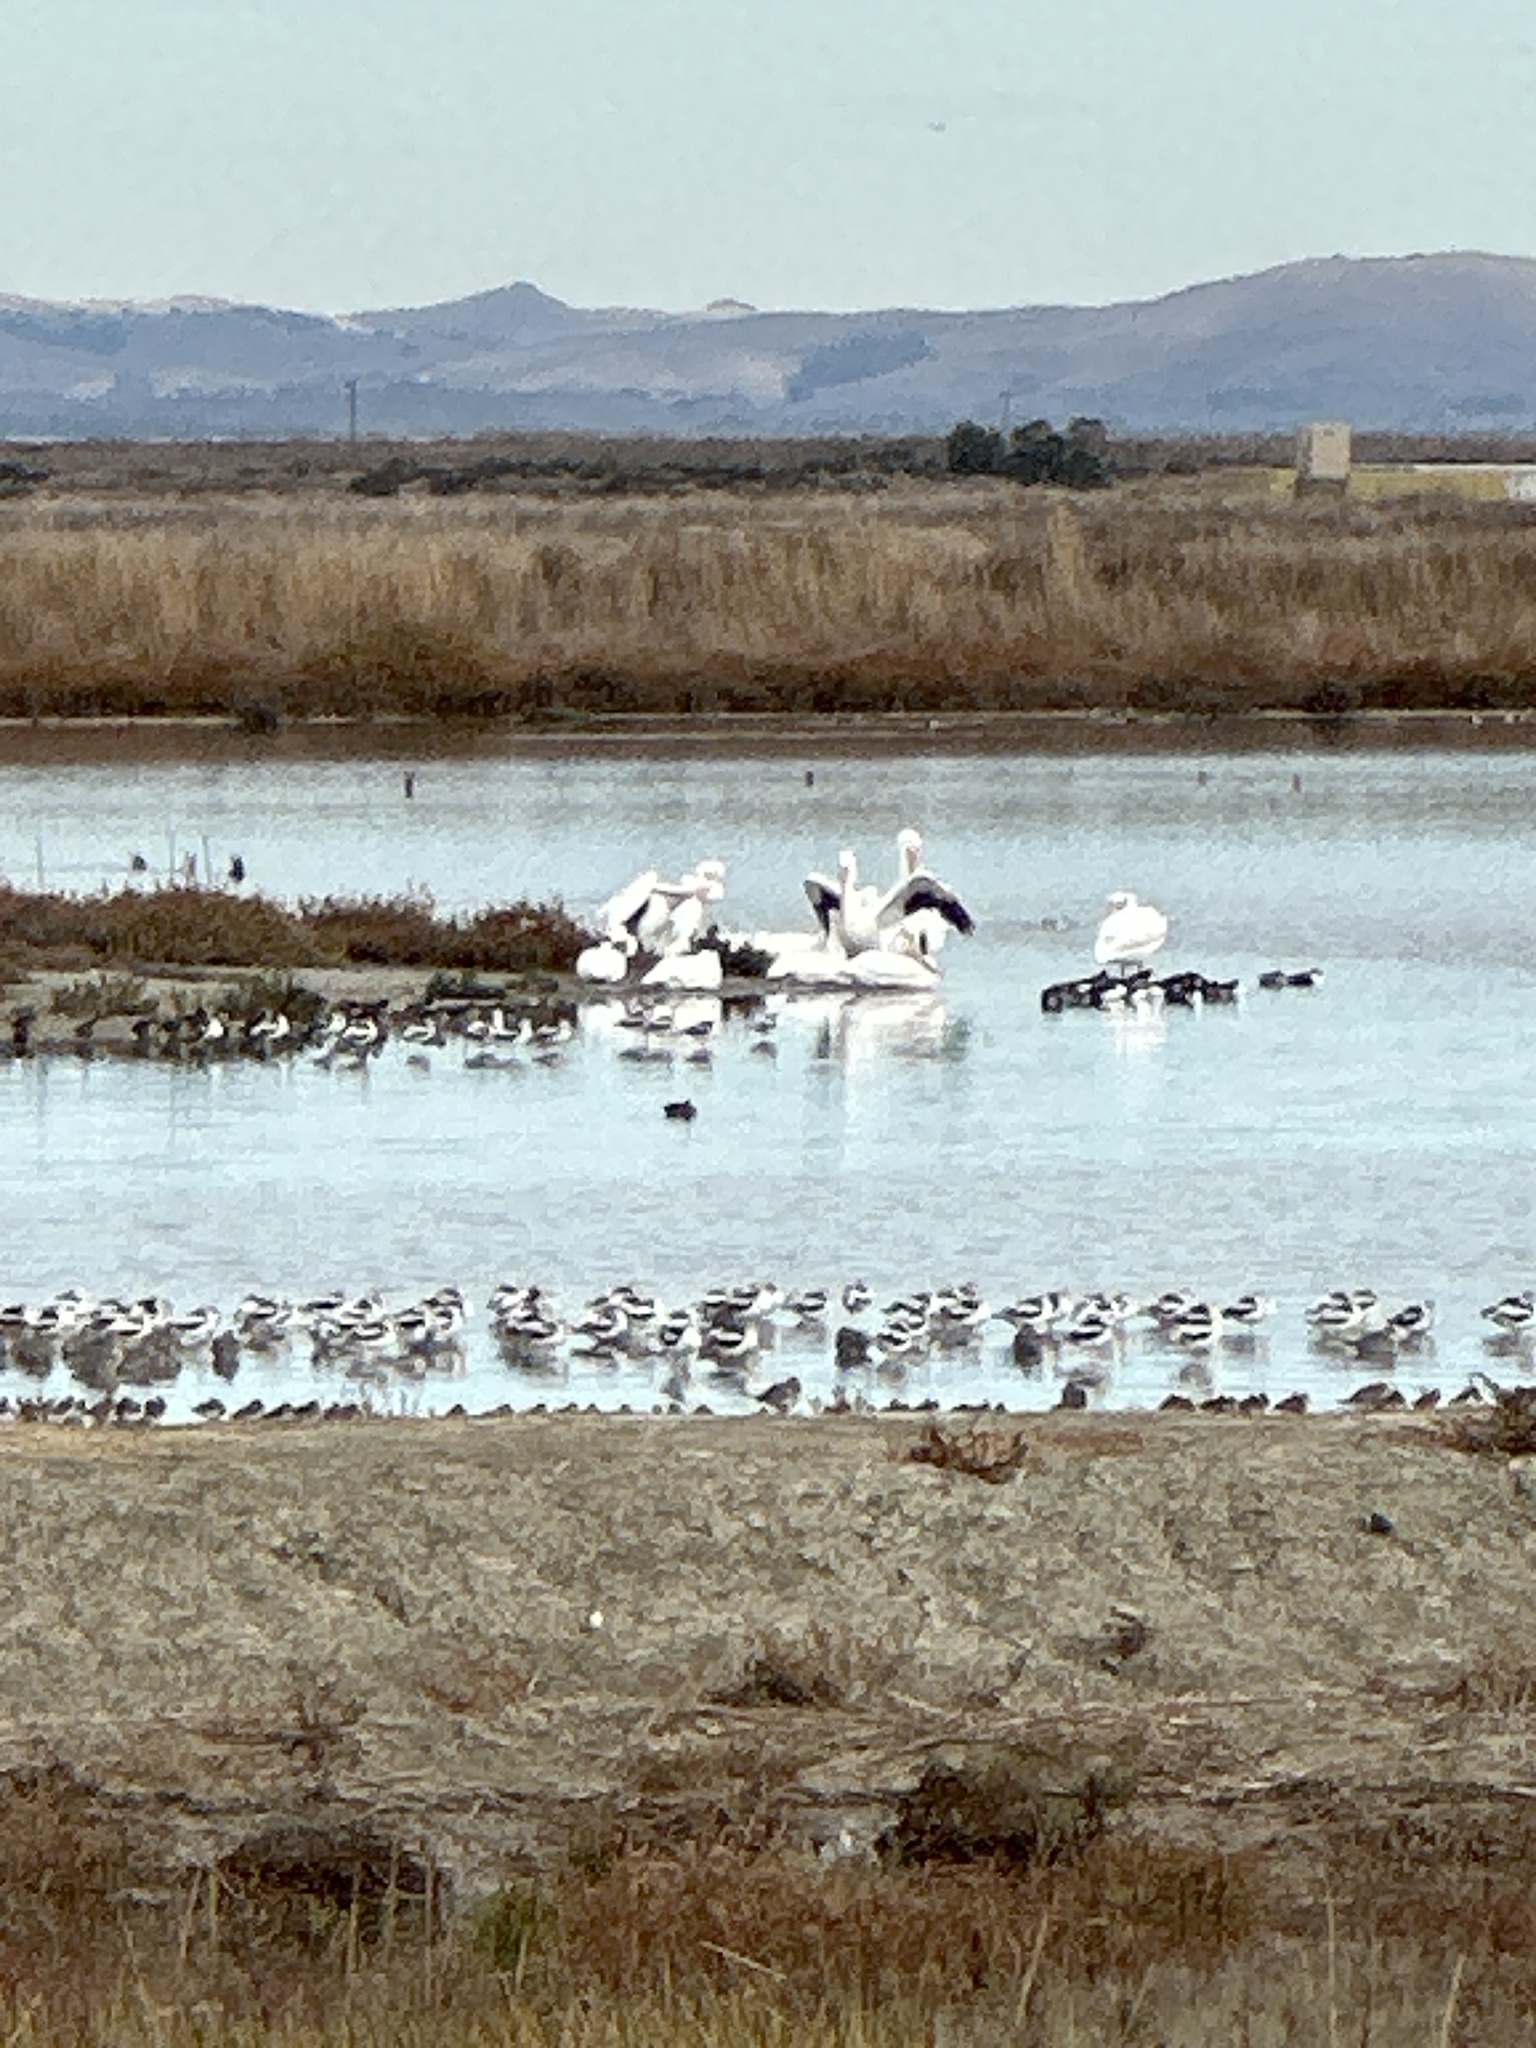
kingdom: Animalia
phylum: Chordata
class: Aves
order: Pelecaniformes
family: Pelecanidae
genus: Pelecanus
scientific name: Pelecanus erythrorhynchos
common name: American white pelican
